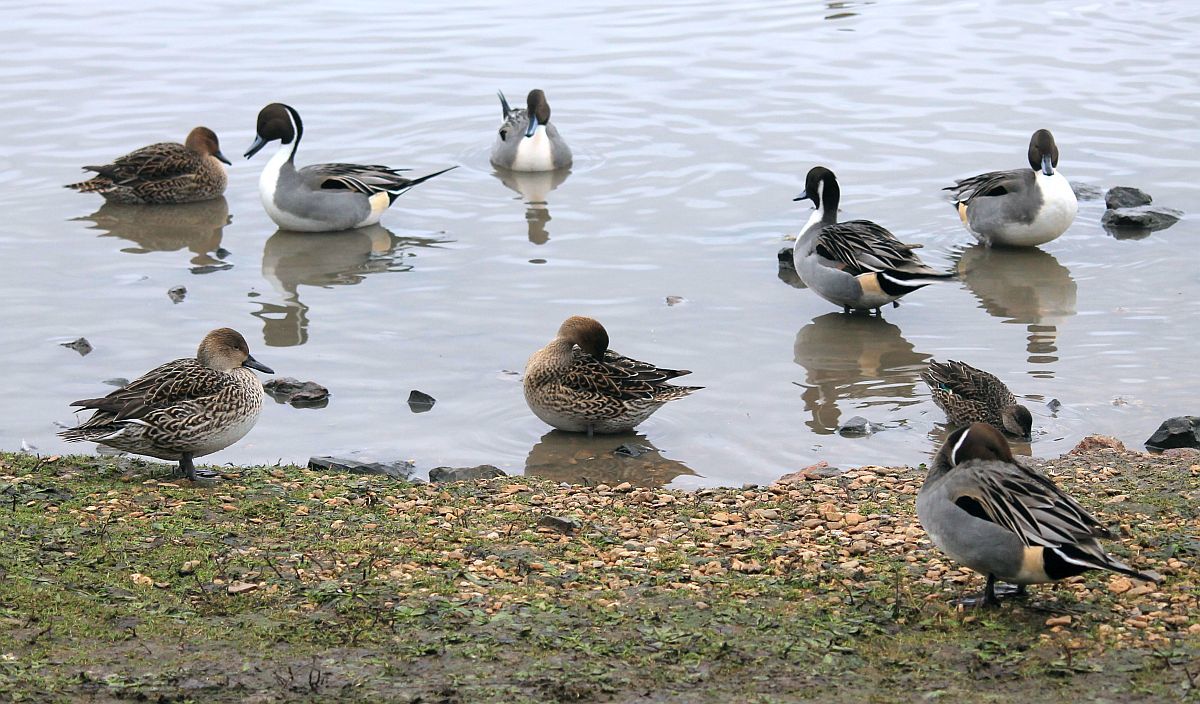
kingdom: Animalia
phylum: Chordata
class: Aves
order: Anseriformes
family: Anatidae
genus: Anas
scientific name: Anas acuta
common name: Northern pintail
